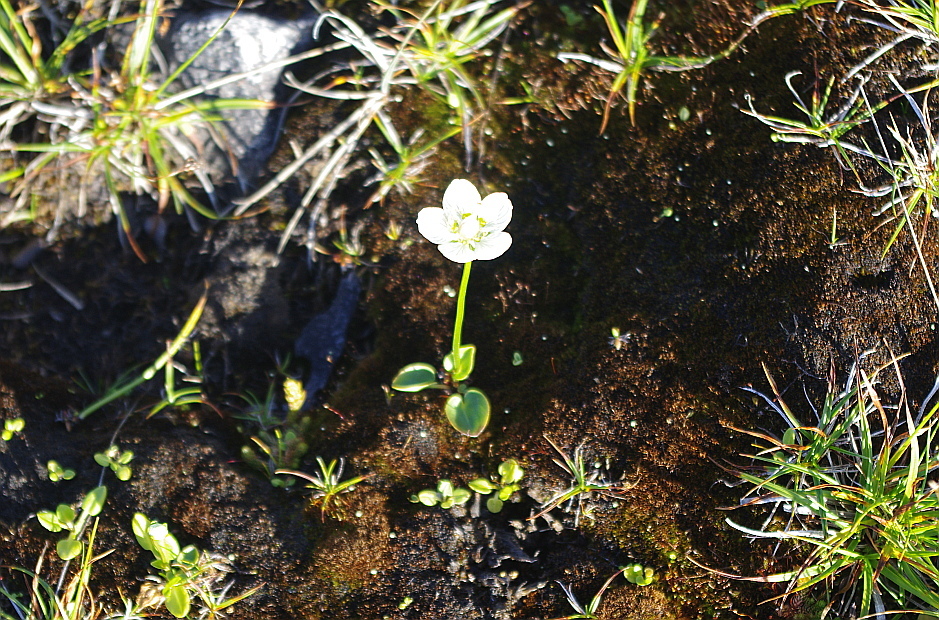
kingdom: Plantae
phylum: Tracheophyta
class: Magnoliopsida
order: Celastrales
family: Parnassiaceae
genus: Parnassia
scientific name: Parnassia palustris
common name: Grass-of-parnassus
